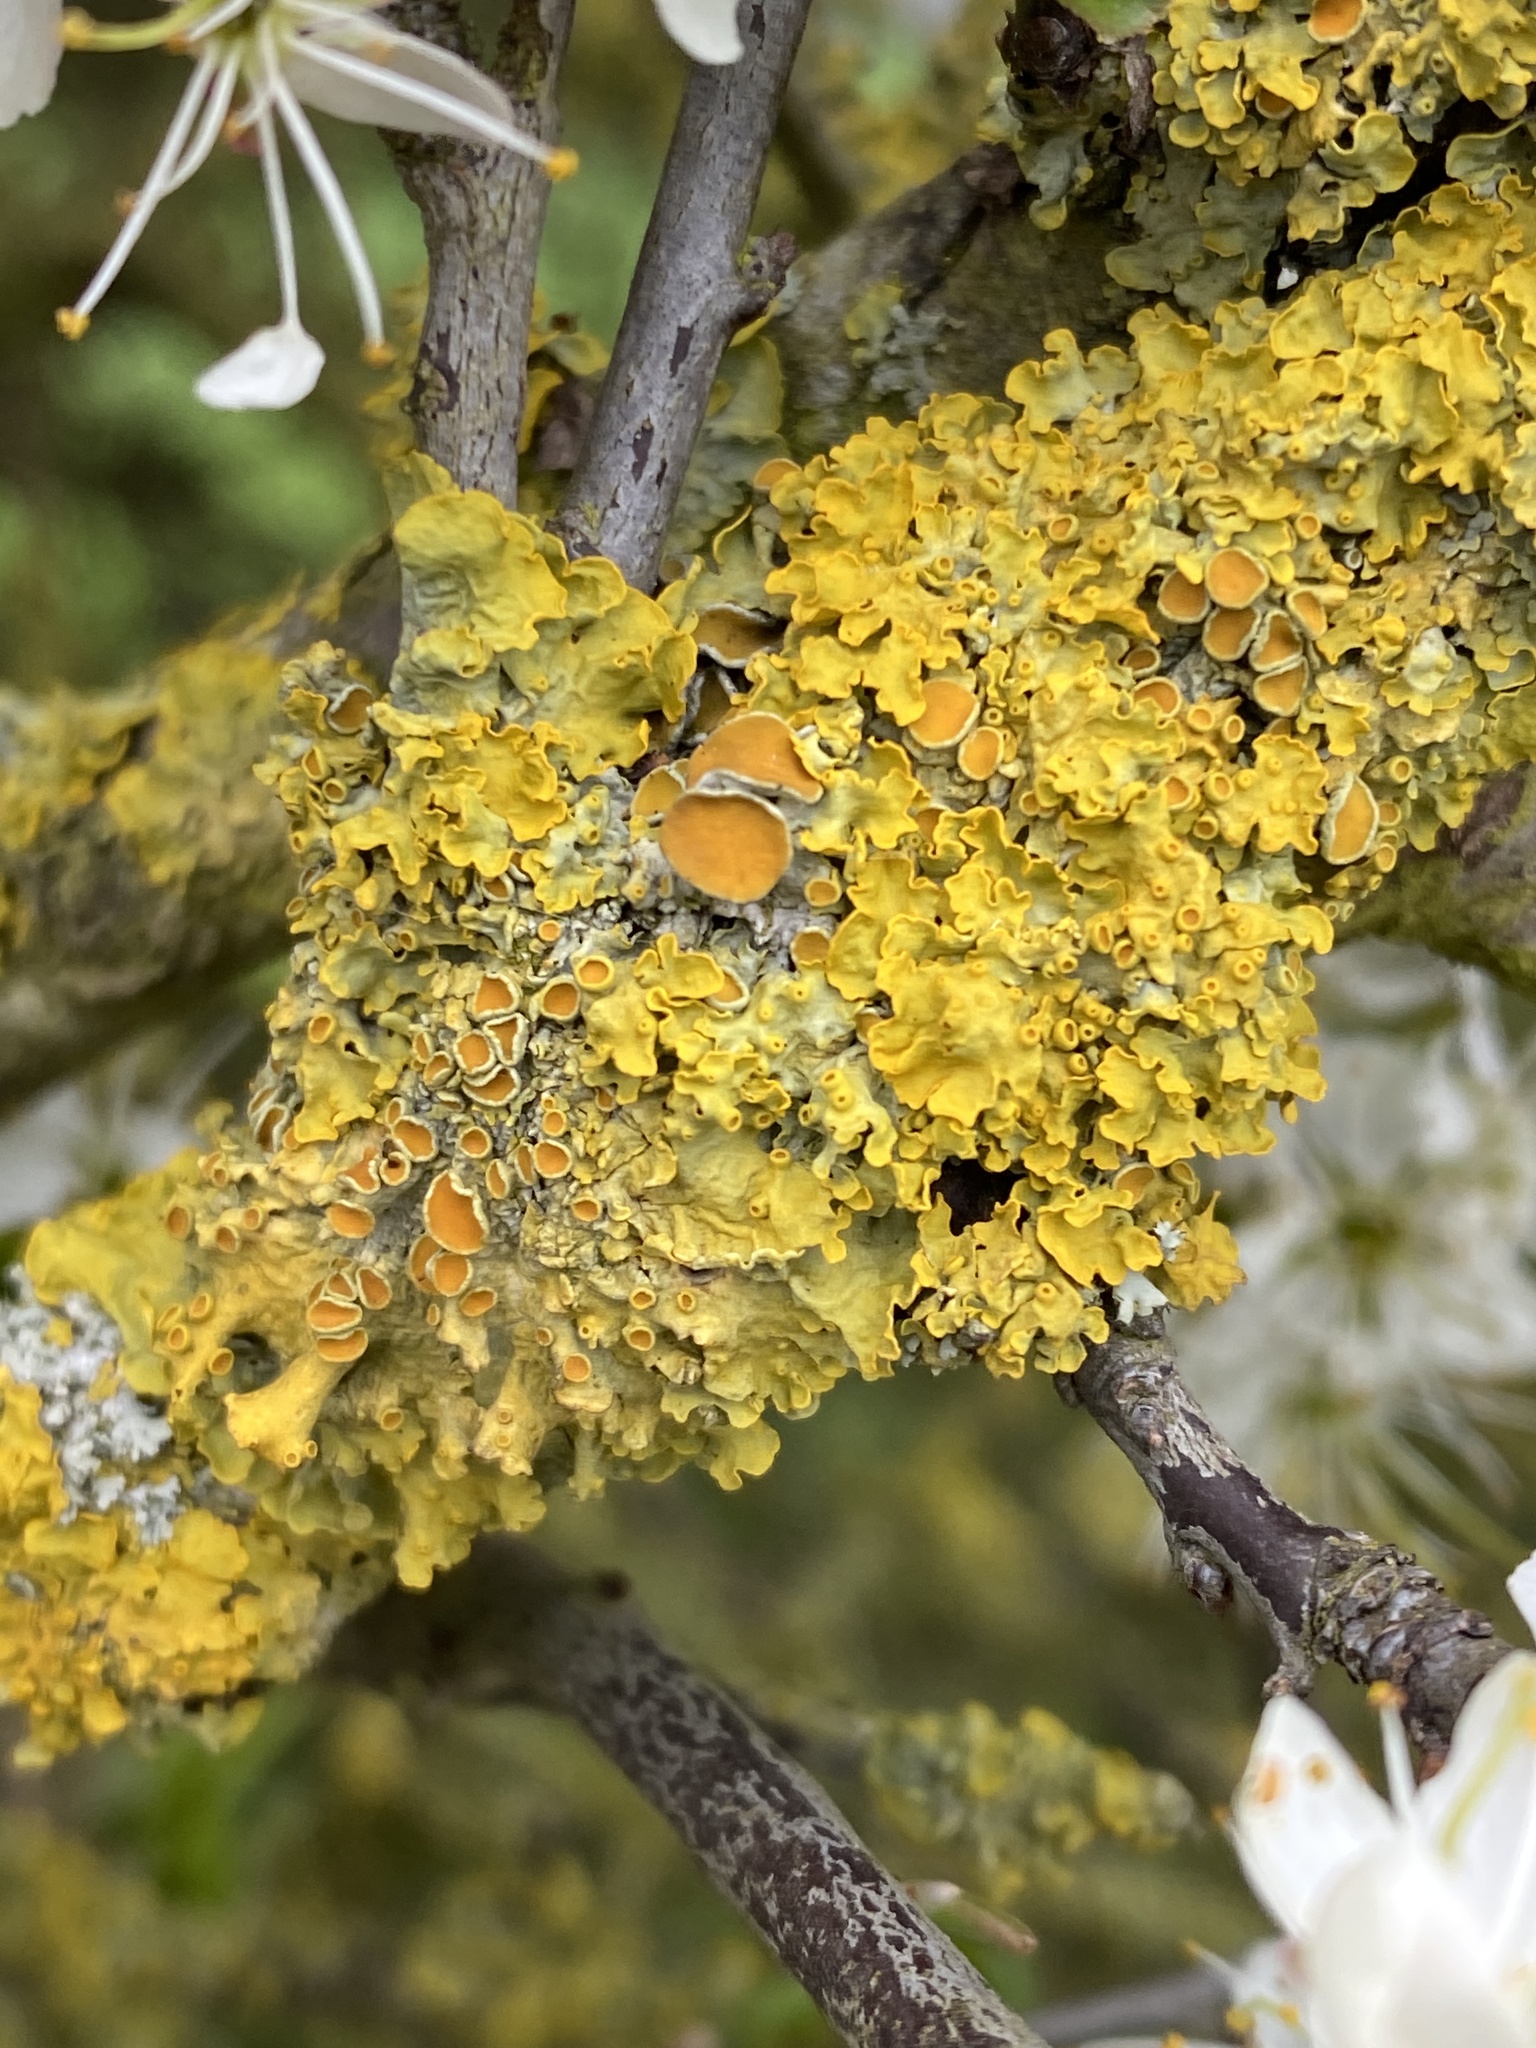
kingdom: Fungi
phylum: Ascomycota
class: Lecanoromycetes
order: Teloschistales
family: Teloschistaceae
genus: Xanthoria
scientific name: Xanthoria parietina
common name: Common orange lichen
